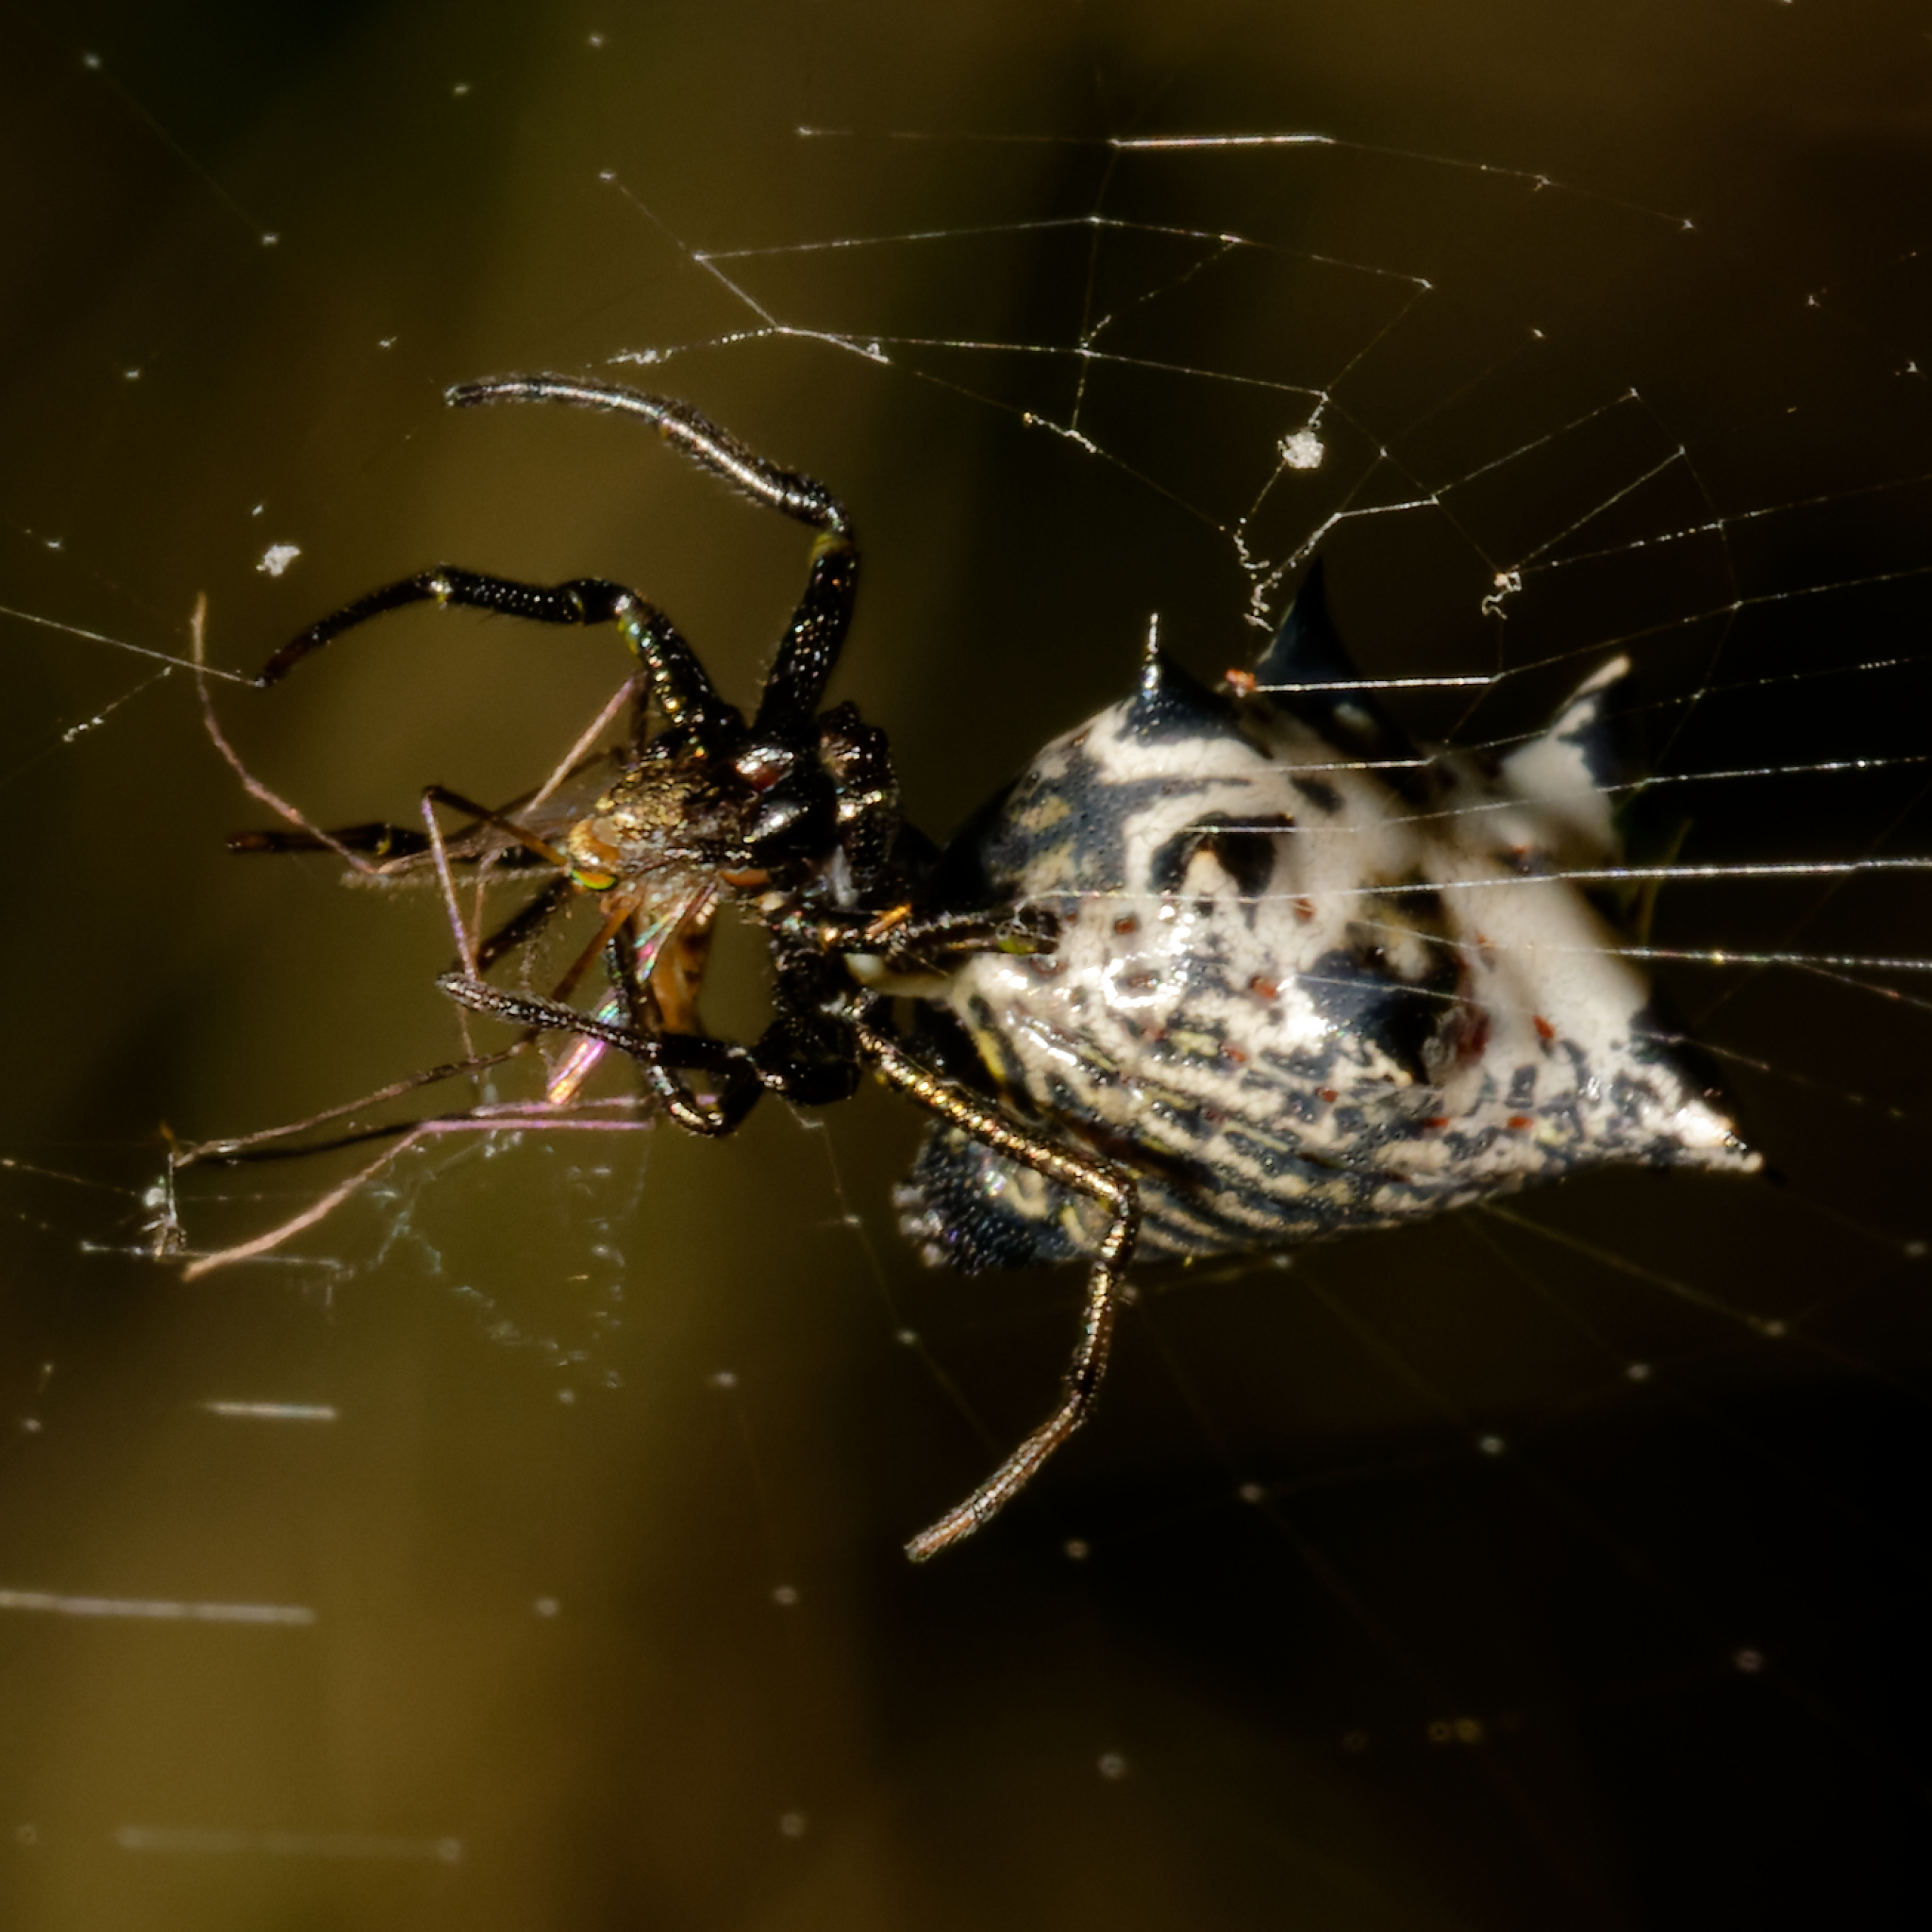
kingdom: Animalia
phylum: Arthropoda
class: Arachnida
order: Araneae
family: Araneidae
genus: Micrathena
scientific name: Micrathena gracilis
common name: Orb weavers
